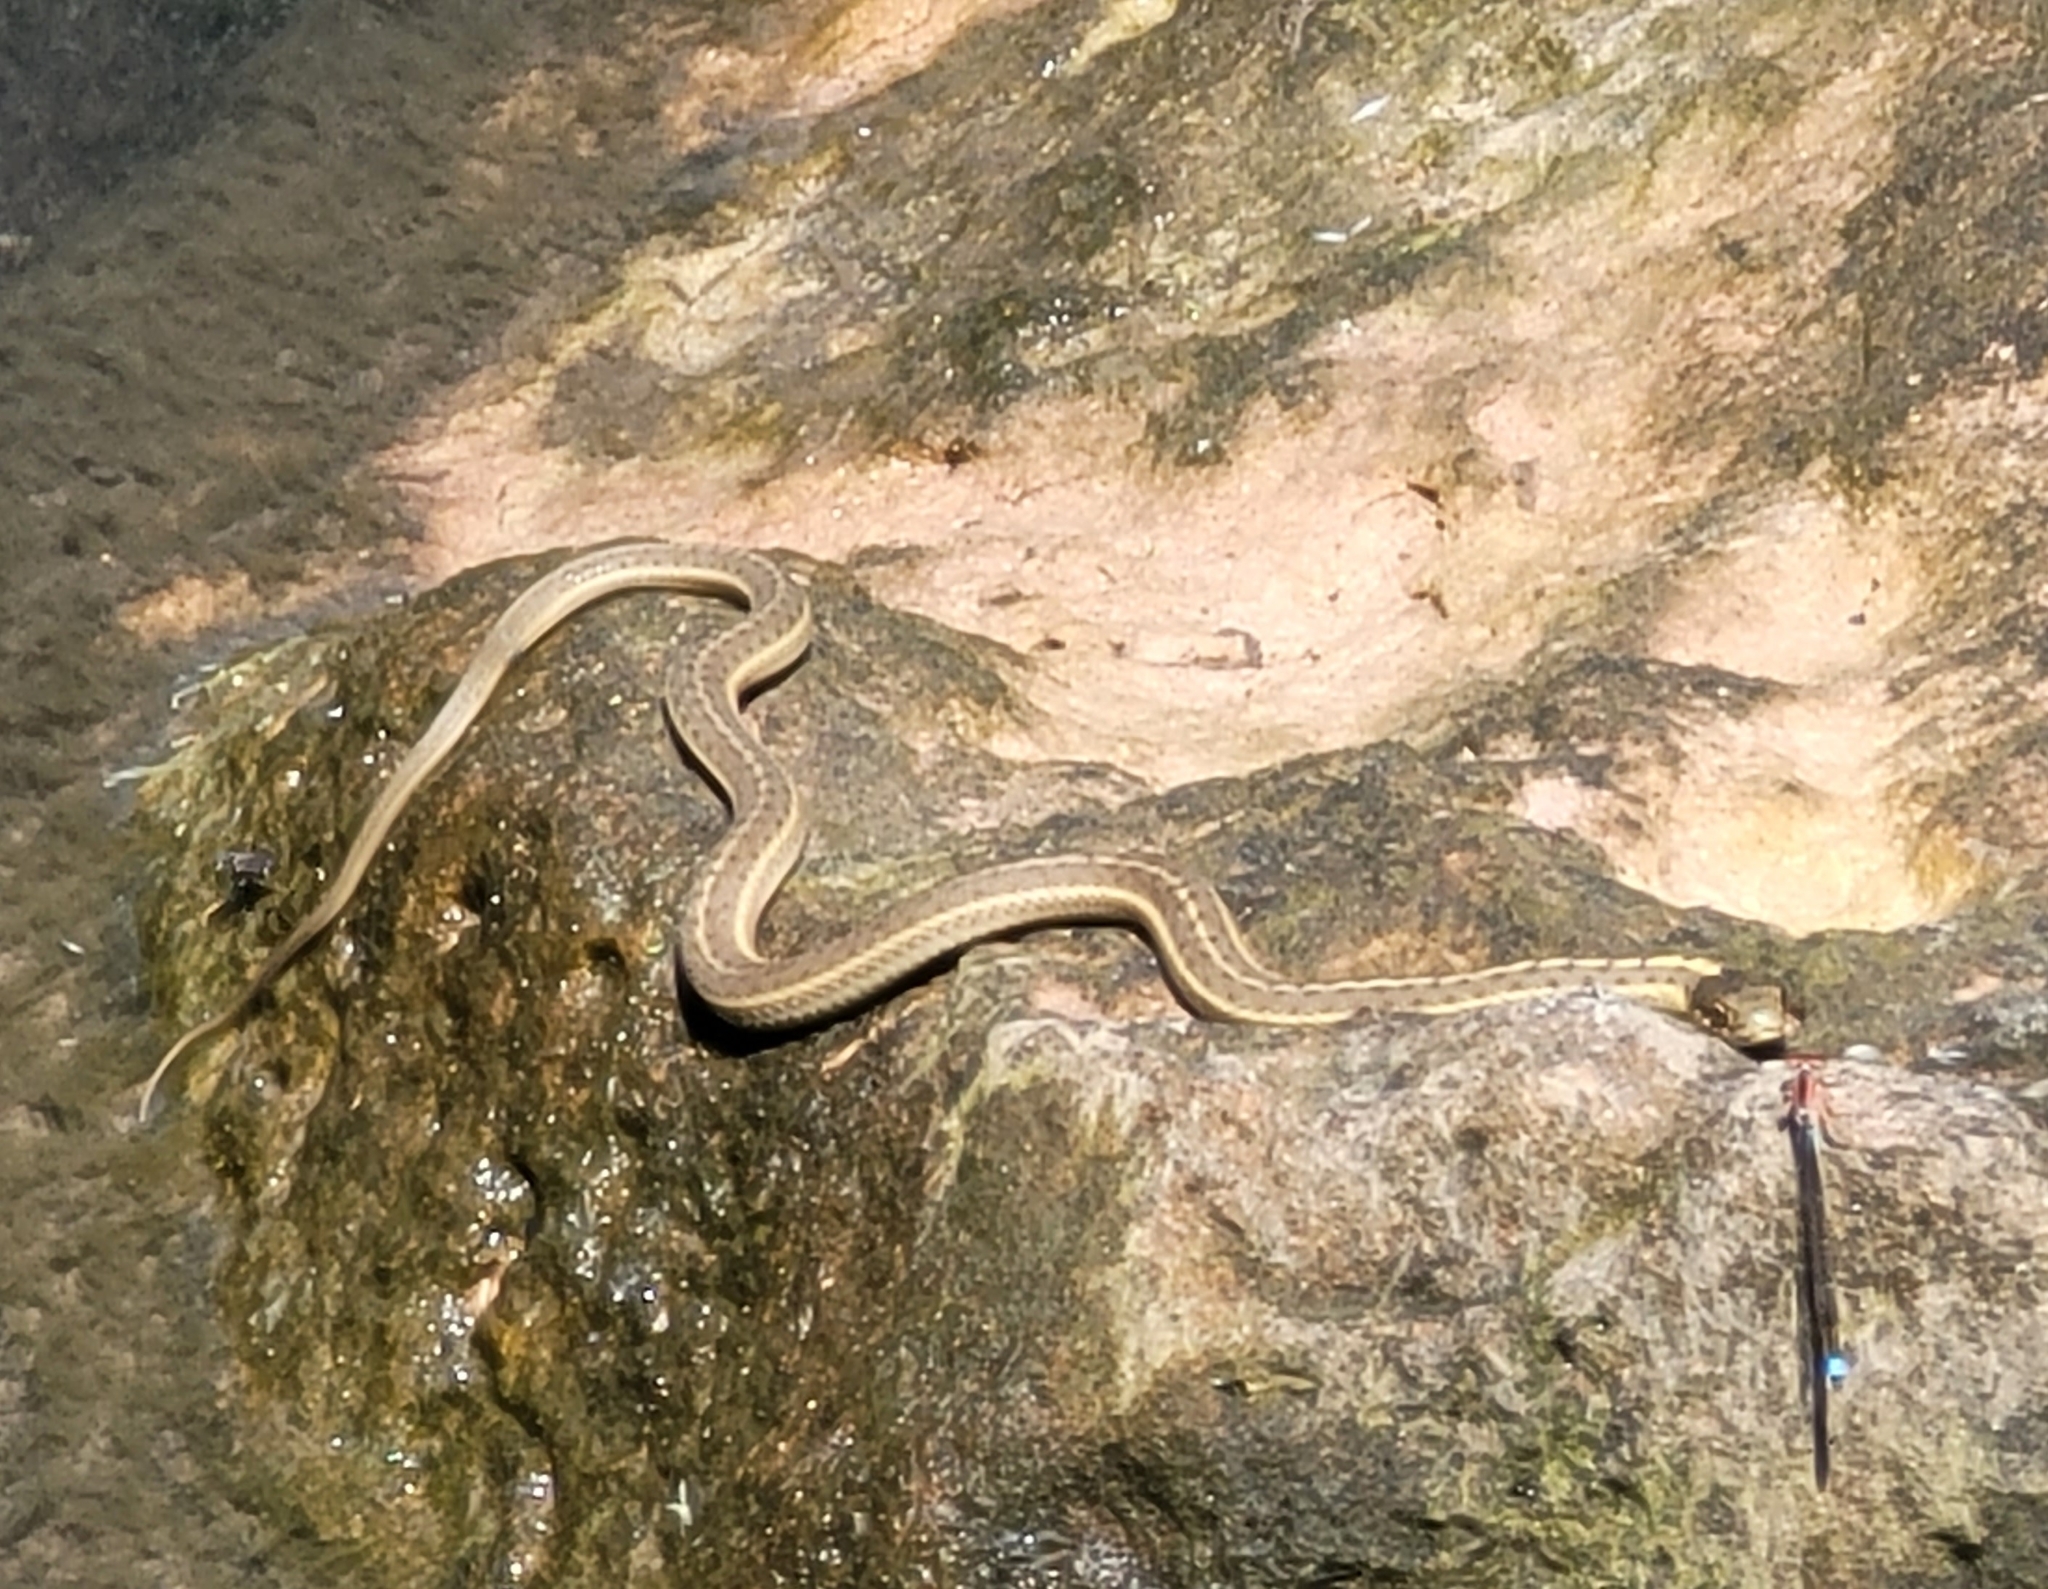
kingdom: Animalia
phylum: Chordata
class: Squamata
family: Colubridae
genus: Thamnophis
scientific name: Thamnophis elegans
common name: Western terrestrial garter snake
